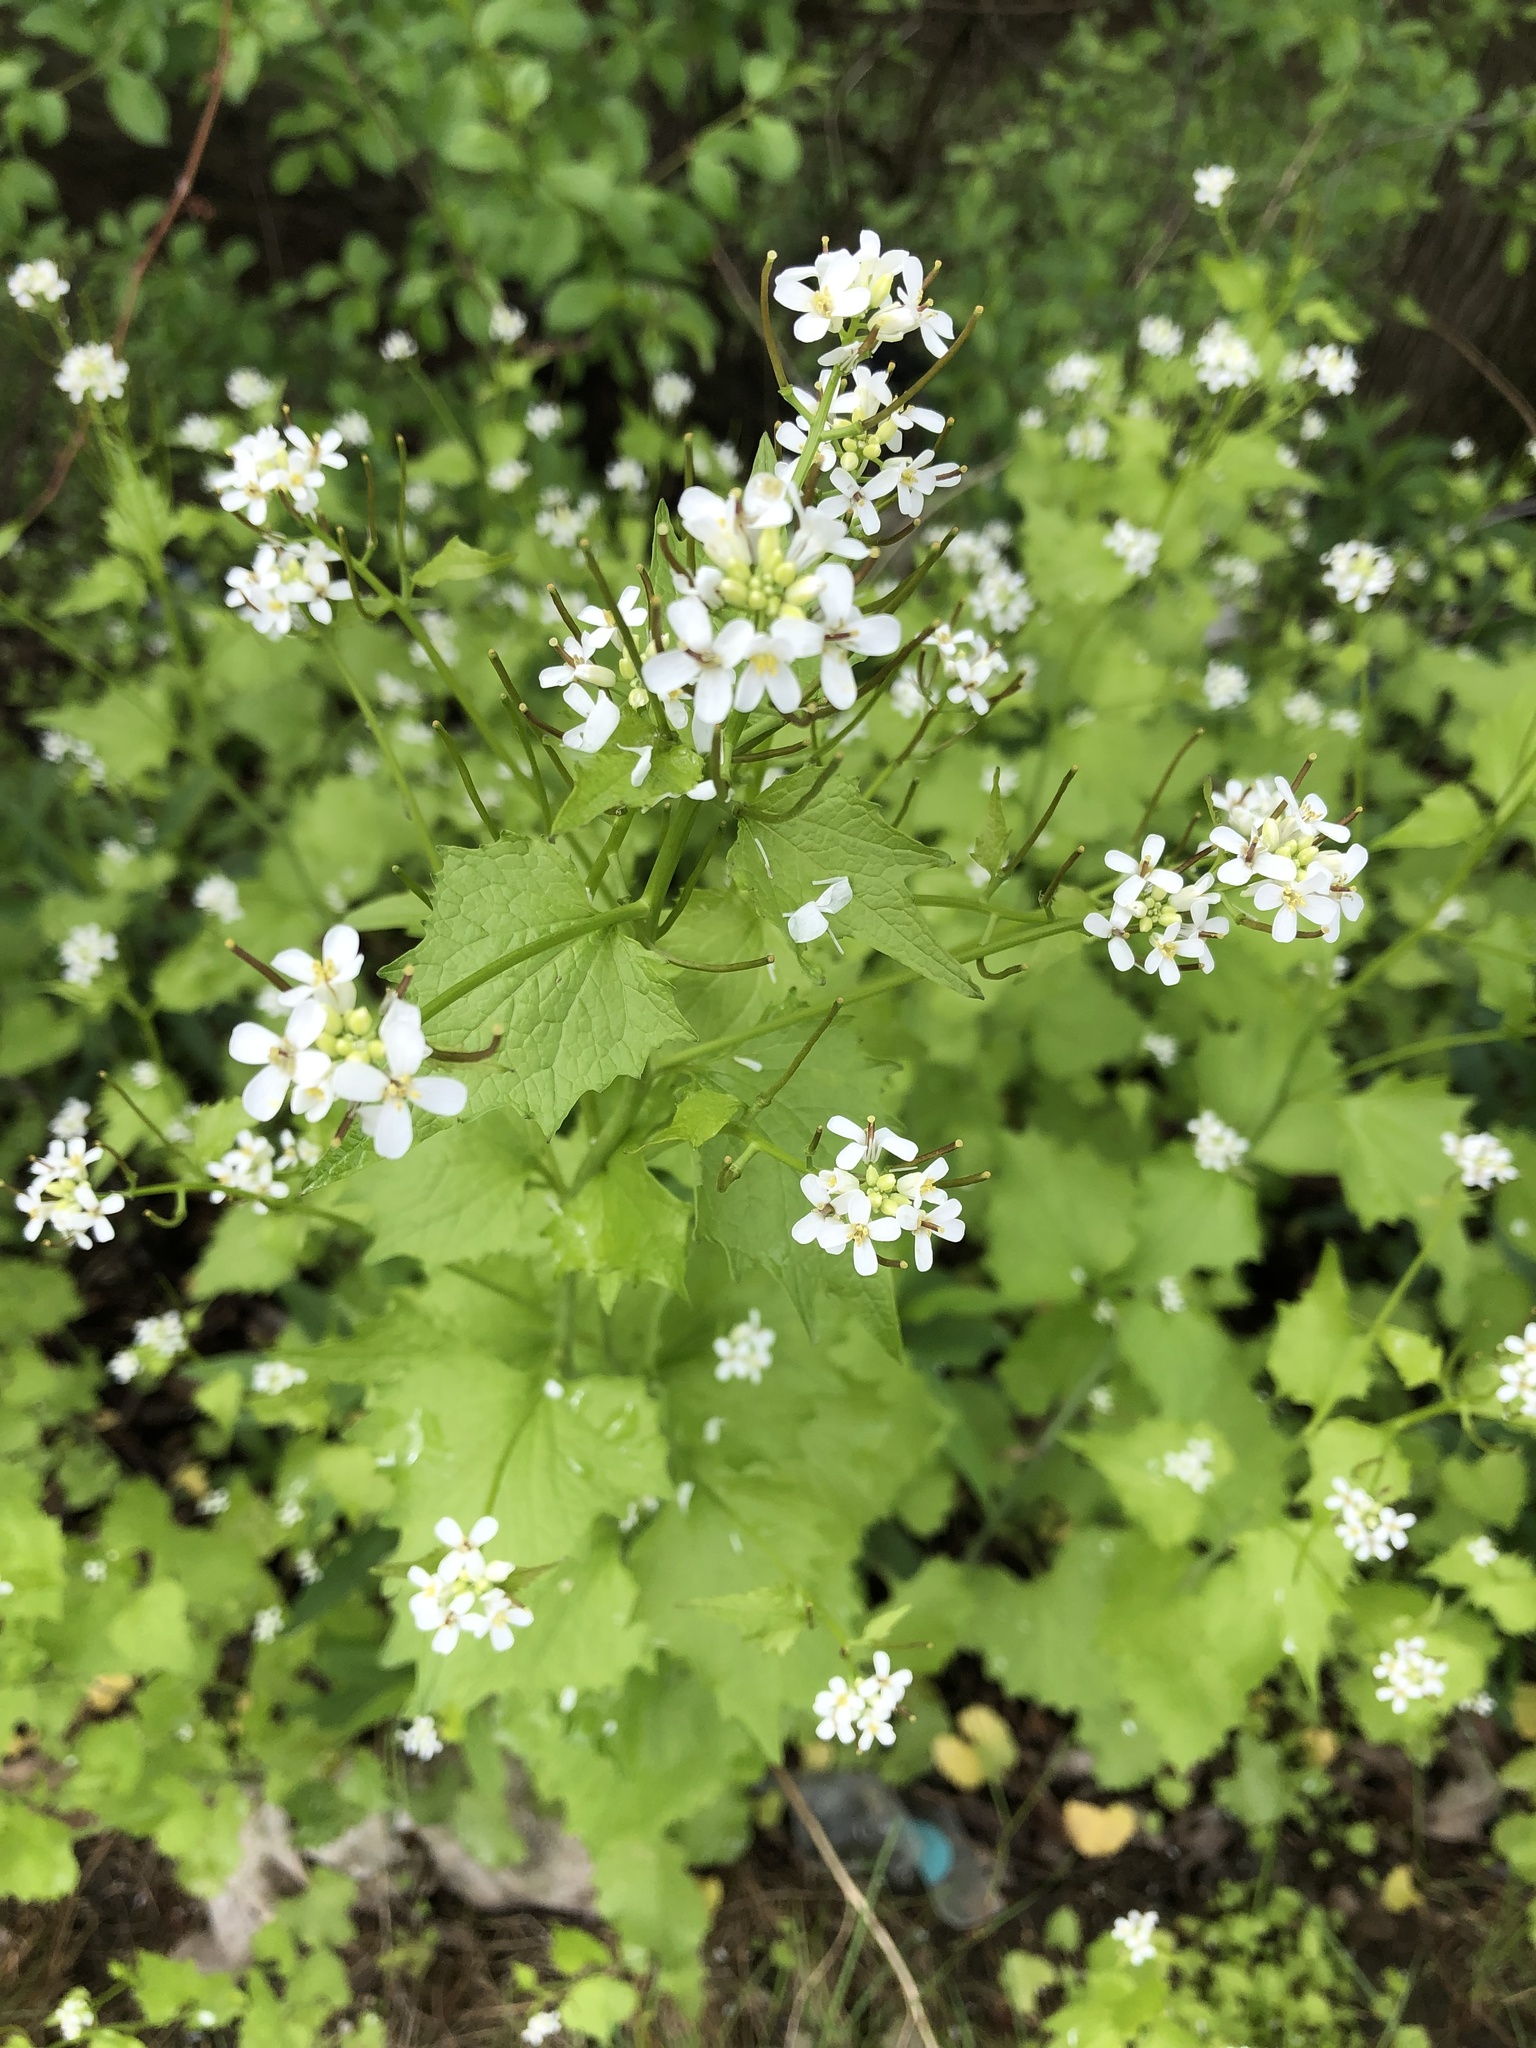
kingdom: Plantae
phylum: Tracheophyta
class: Magnoliopsida
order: Brassicales
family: Brassicaceae
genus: Alliaria
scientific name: Alliaria petiolata
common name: Garlic mustard
